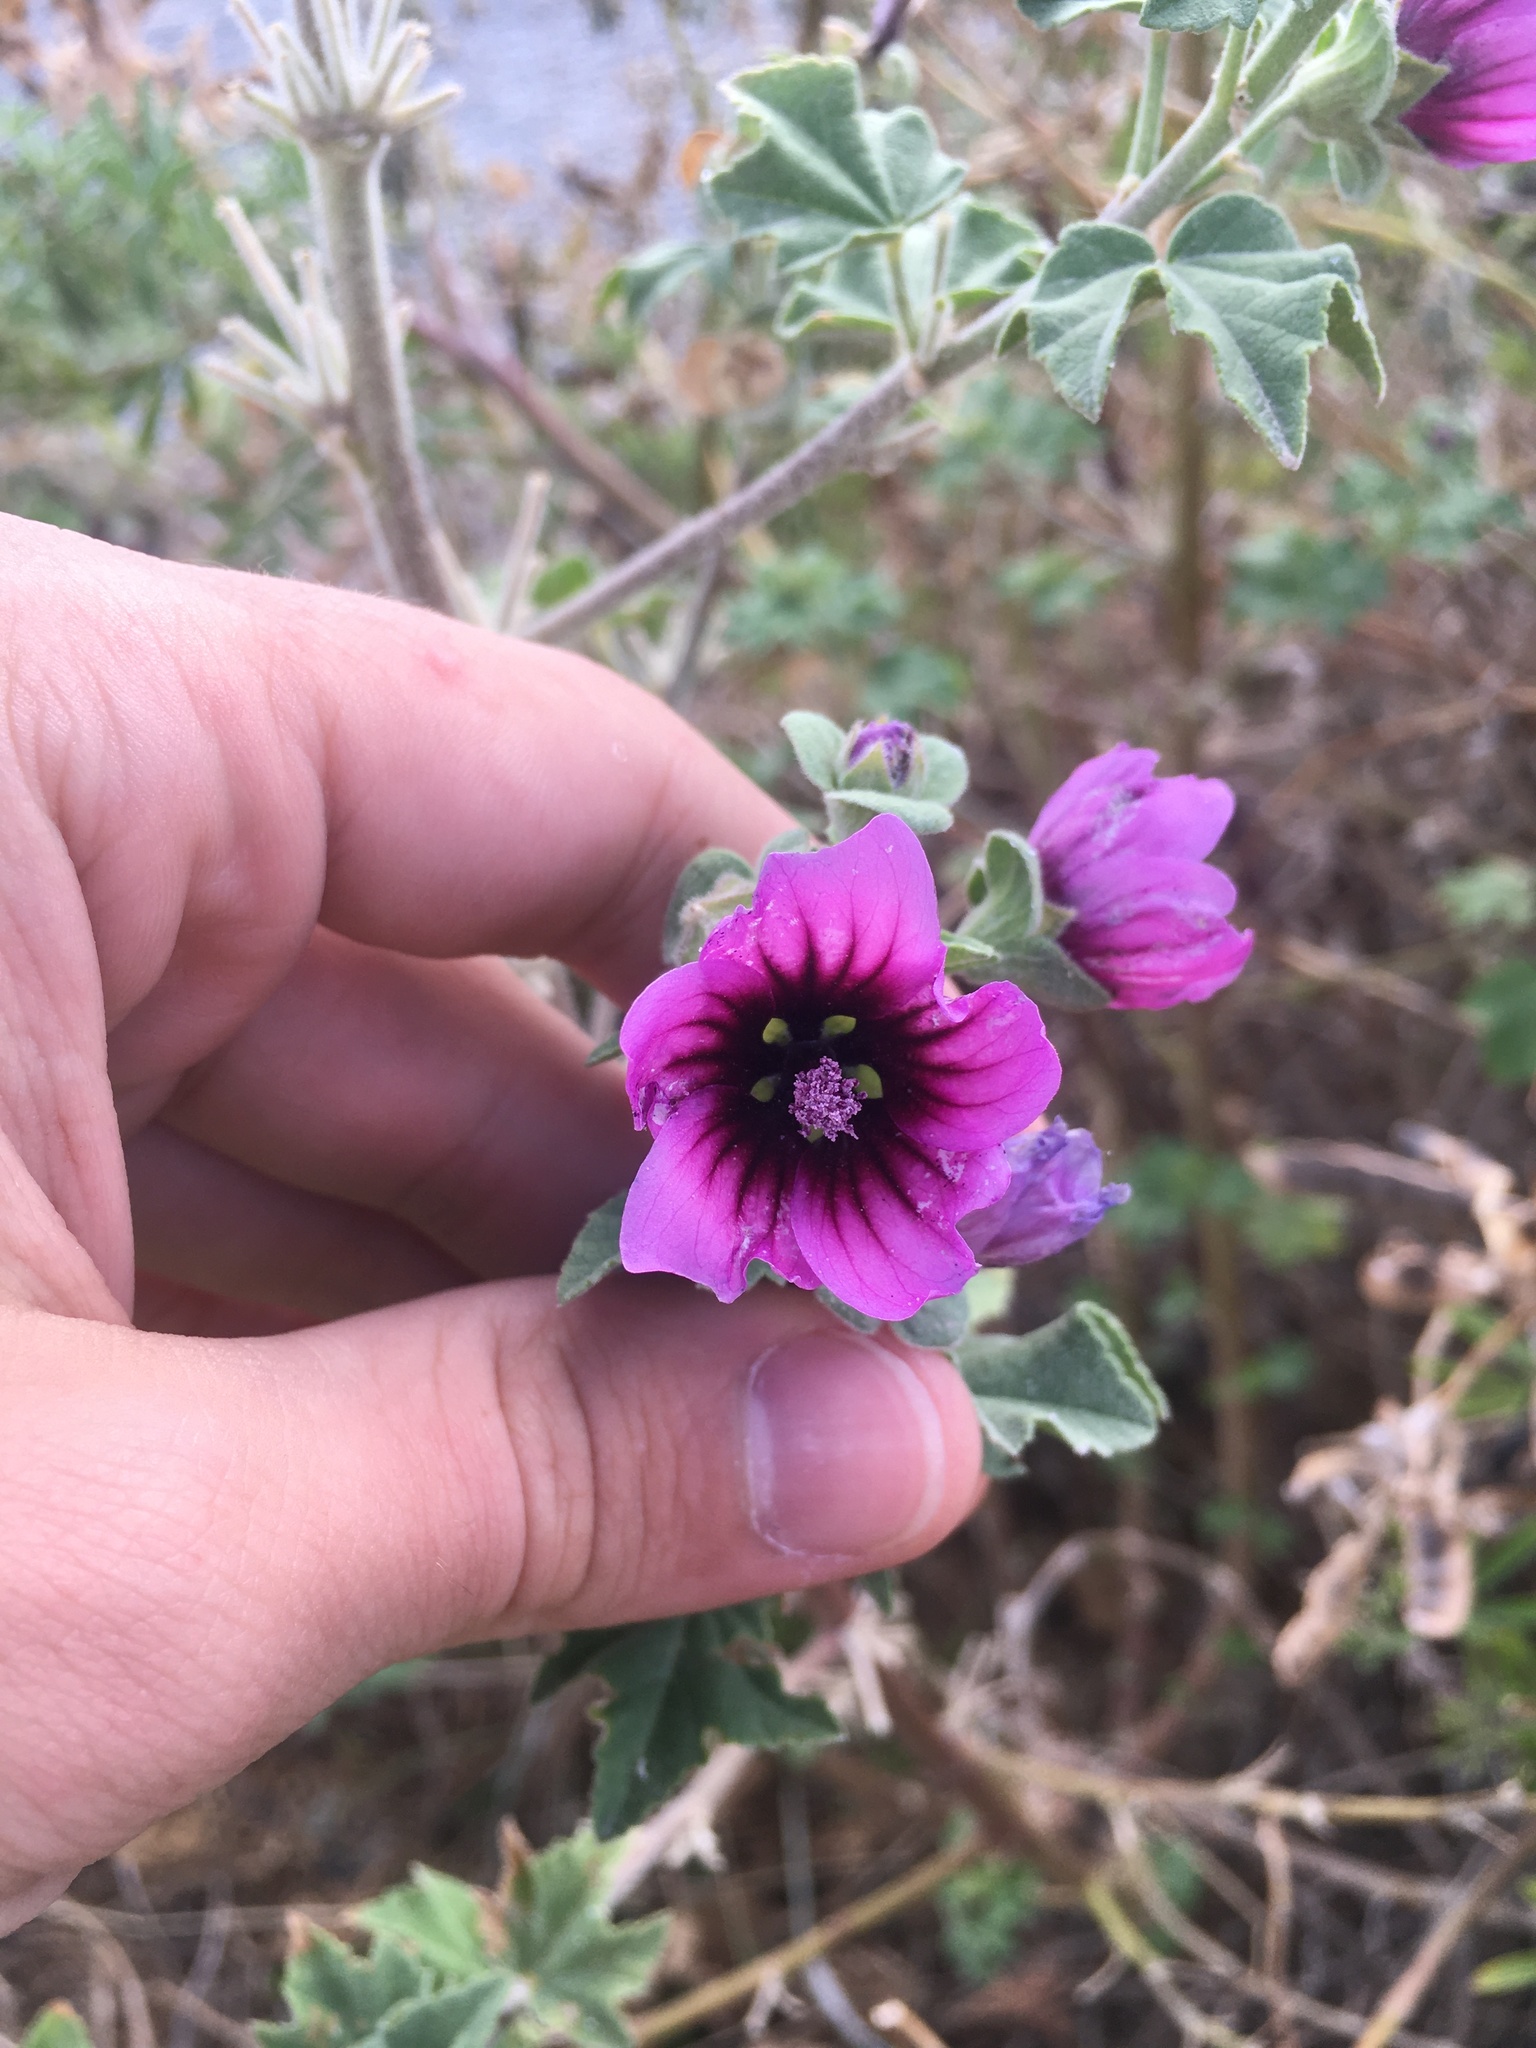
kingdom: Plantae
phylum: Tracheophyta
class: Magnoliopsida
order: Malvales
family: Malvaceae
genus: Malva
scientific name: Malva arborea
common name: Tree mallow
